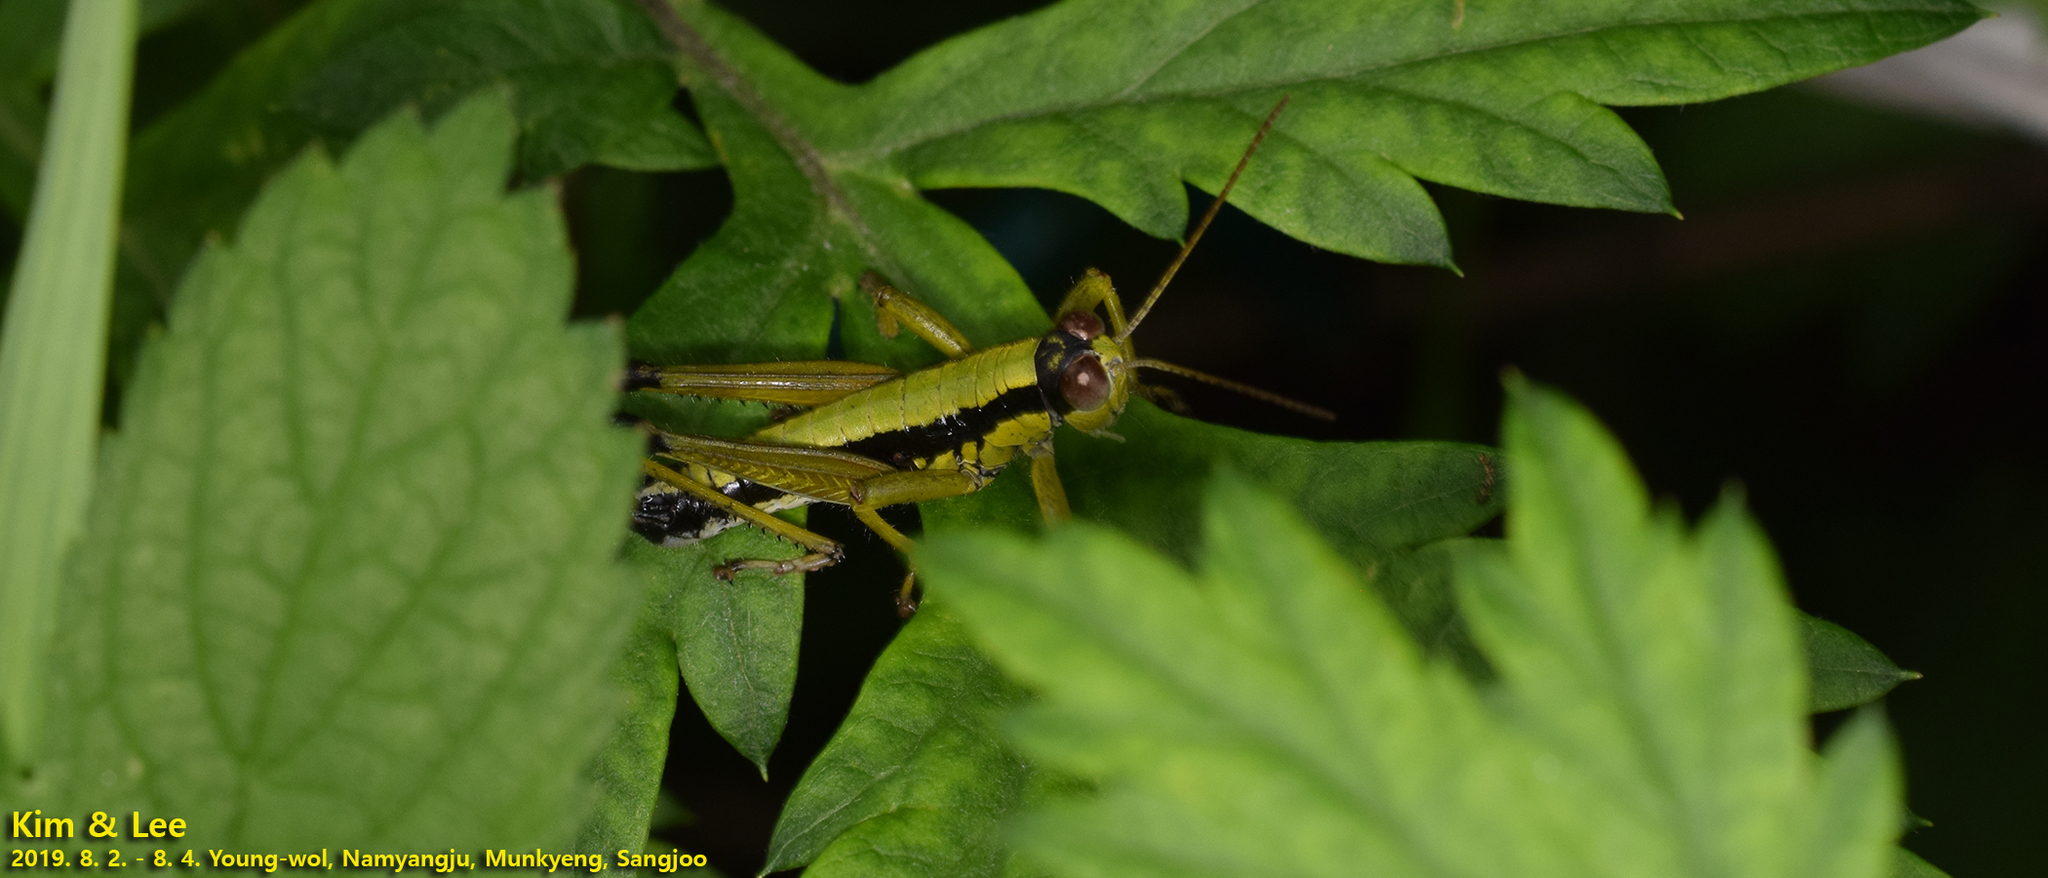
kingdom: Animalia
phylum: Arthropoda
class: Insecta
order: Orthoptera
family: Acrididae
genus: Zubovskya
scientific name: Zubovskya koreana
